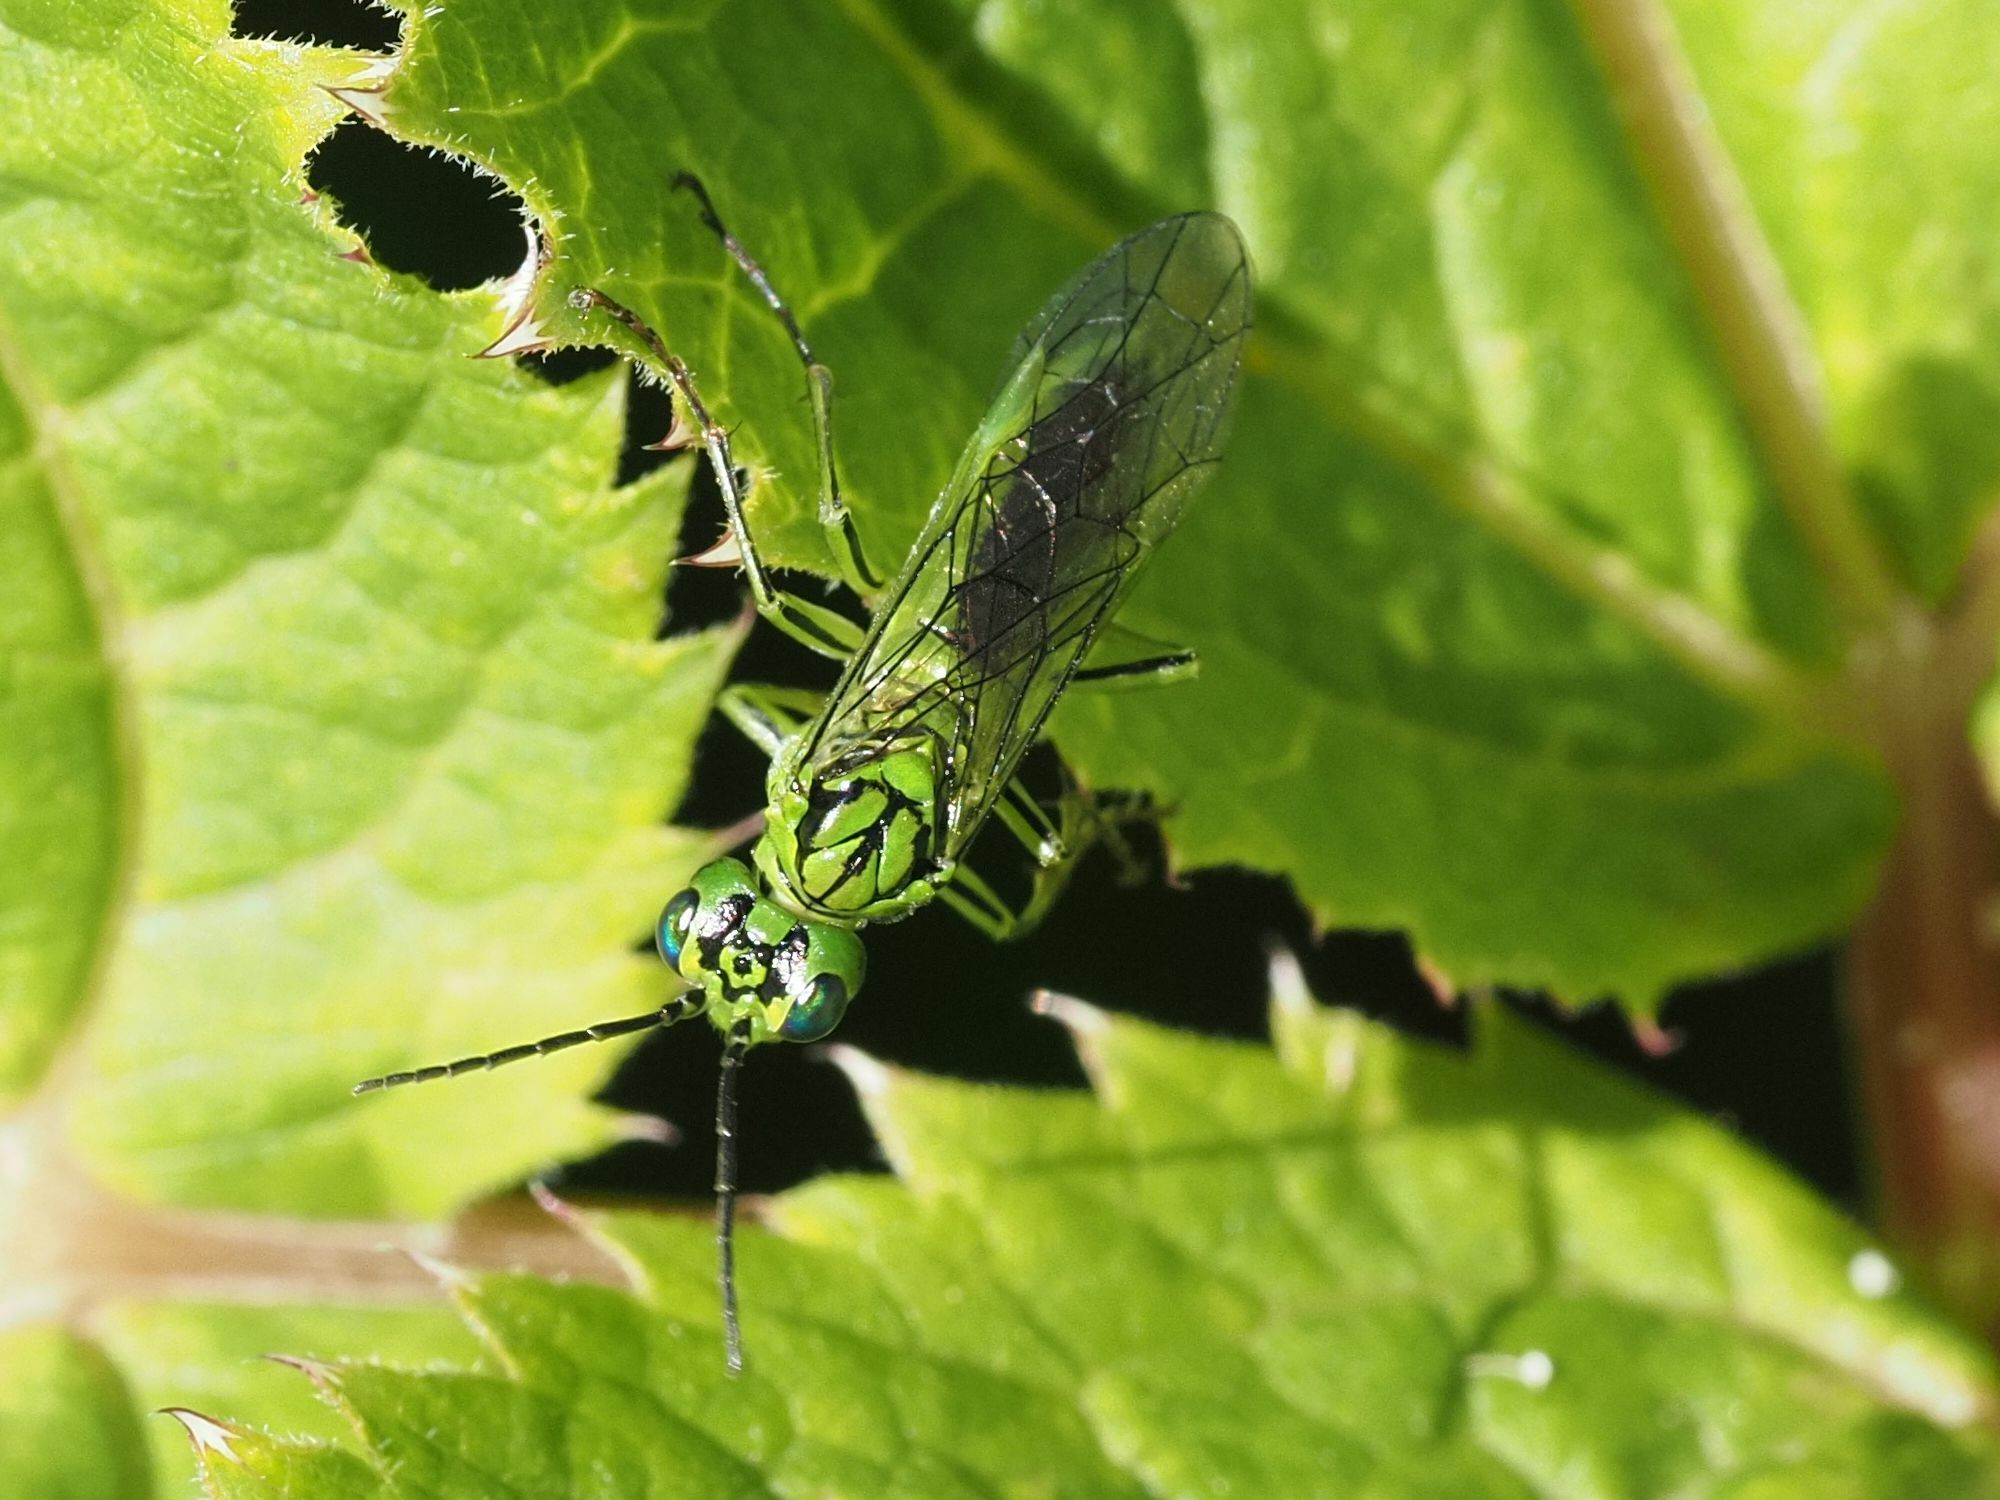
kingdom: Animalia
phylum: Arthropoda
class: Insecta
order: Hymenoptera
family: Tenthredinidae
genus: Tenthredo
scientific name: Tenthredo olivacea
